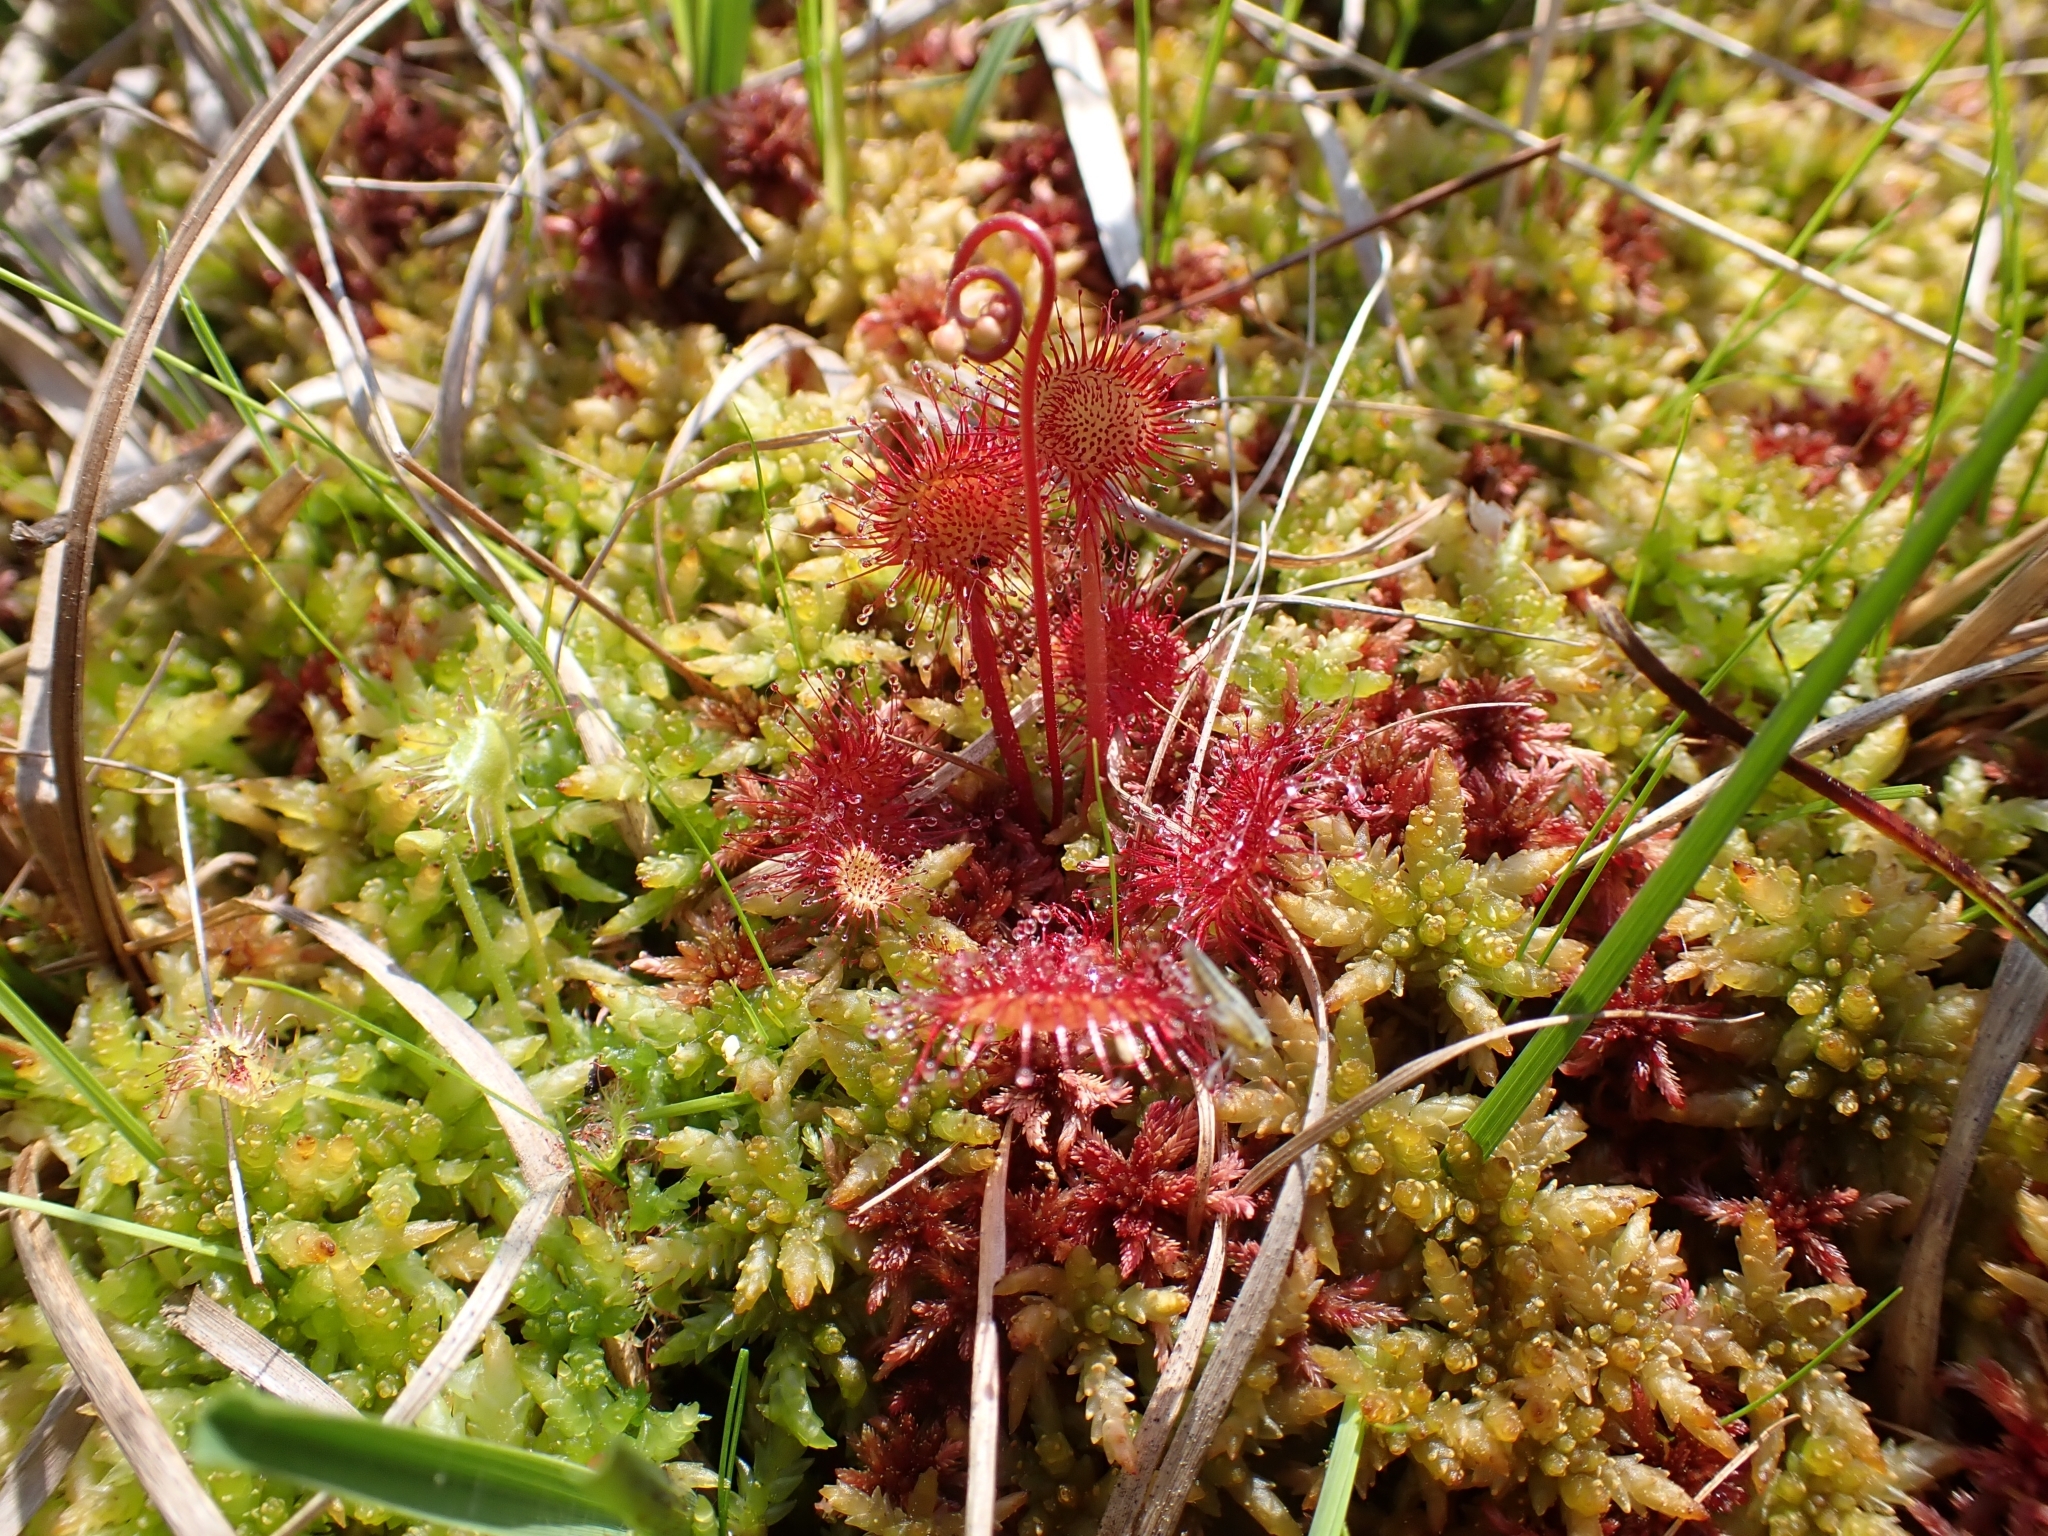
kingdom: Plantae
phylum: Tracheophyta
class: Magnoliopsida
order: Caryophyllales
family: Droseraceae
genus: Drosera
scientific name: Drosera rotundifolia
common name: Round-leaved sundew
